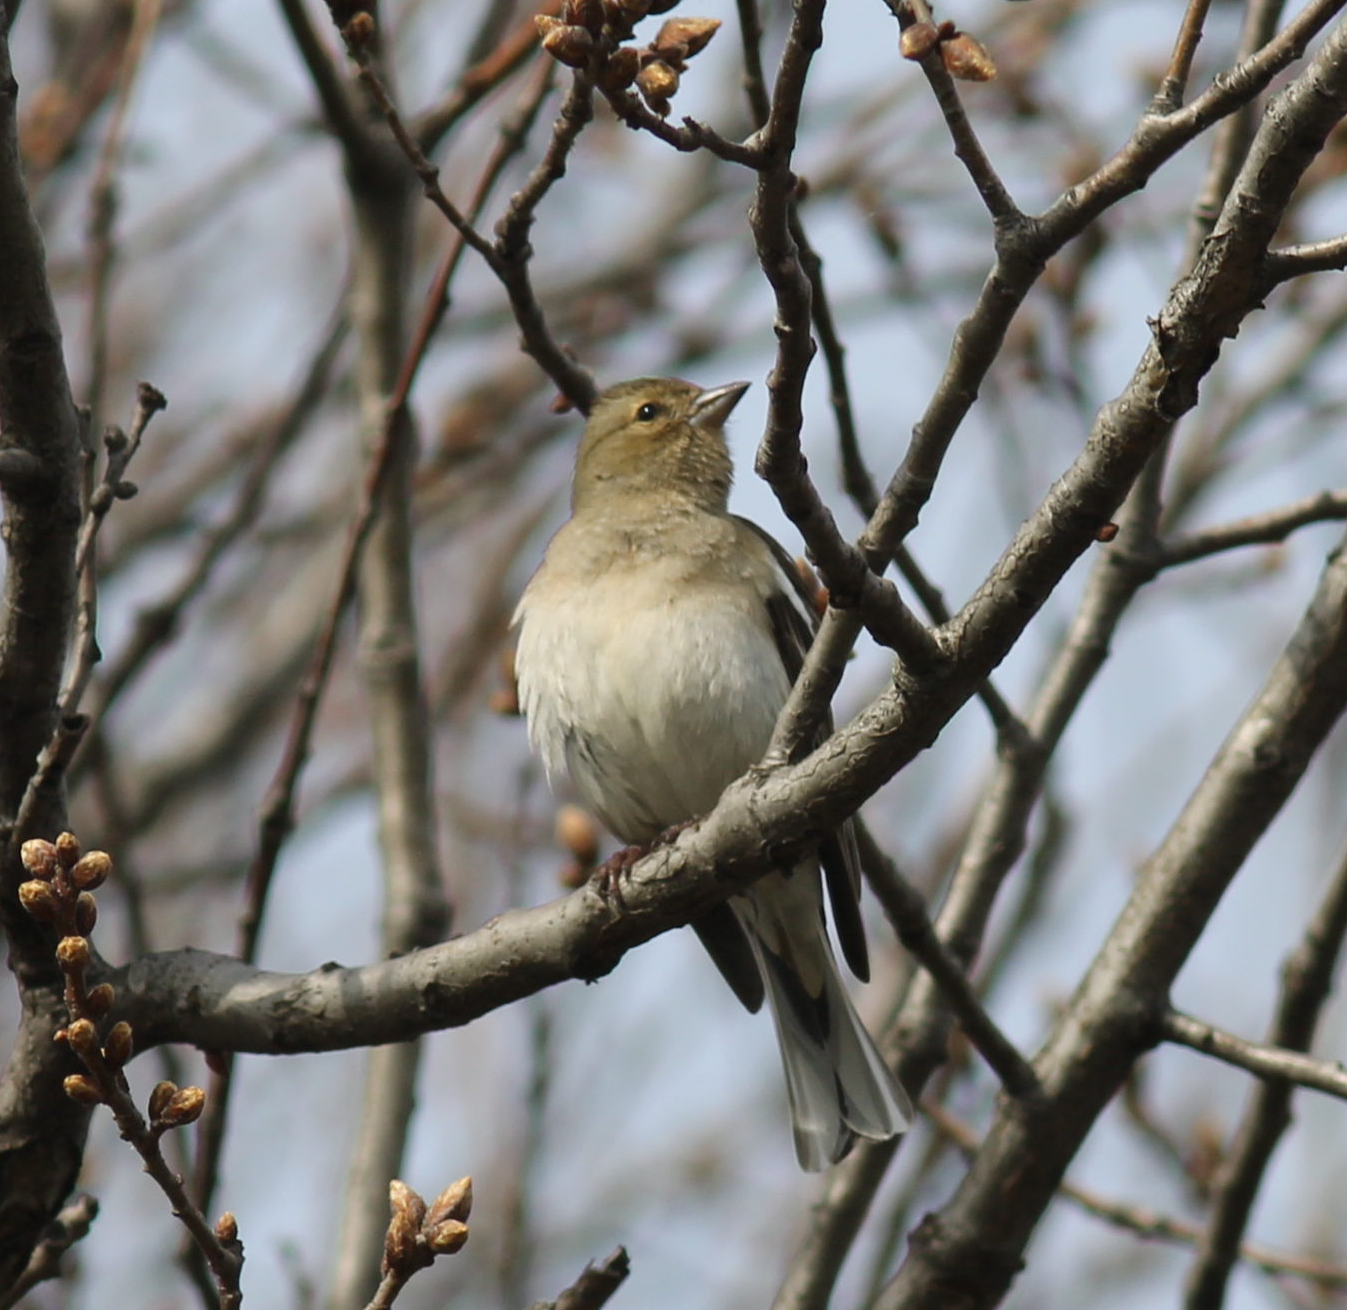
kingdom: Animalia
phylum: Chordata
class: Aves
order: Passeriformes
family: Fringillidae
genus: Fringilla
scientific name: Fringilla coelebs
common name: Common chaffinch
